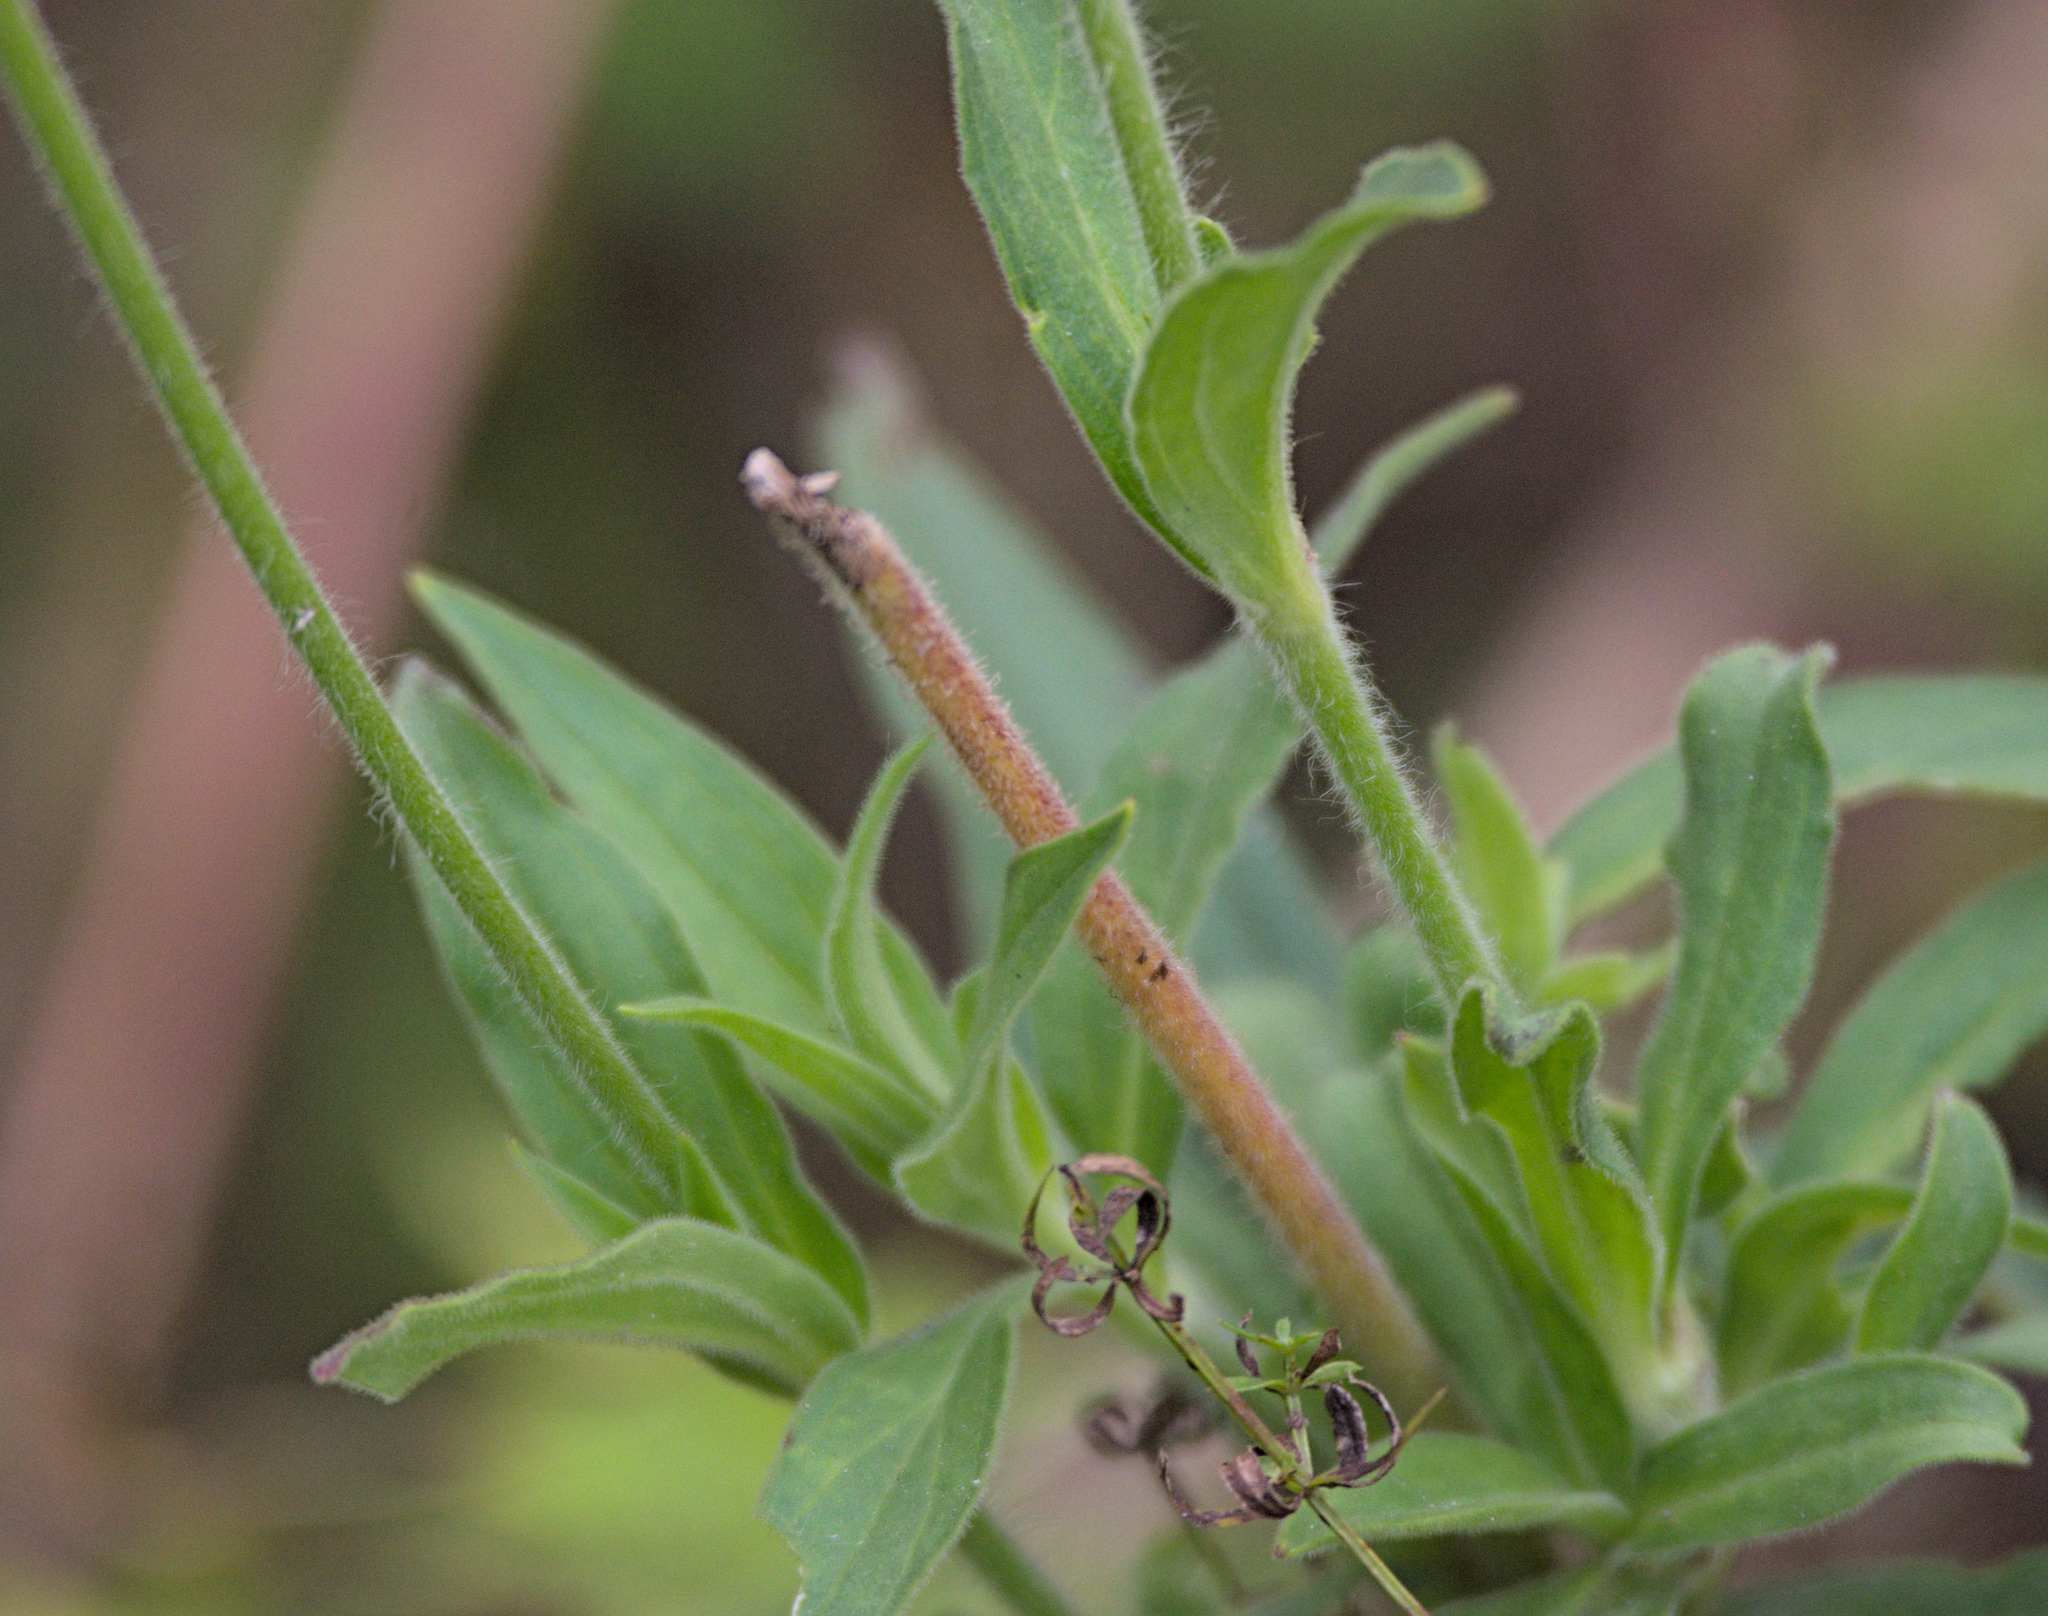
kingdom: Plantae
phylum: Tracheophyta
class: Magnoliopsida
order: Caryophyllales
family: Caryophyllaceae
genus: Silene
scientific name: Silene latifolia
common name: White campion
